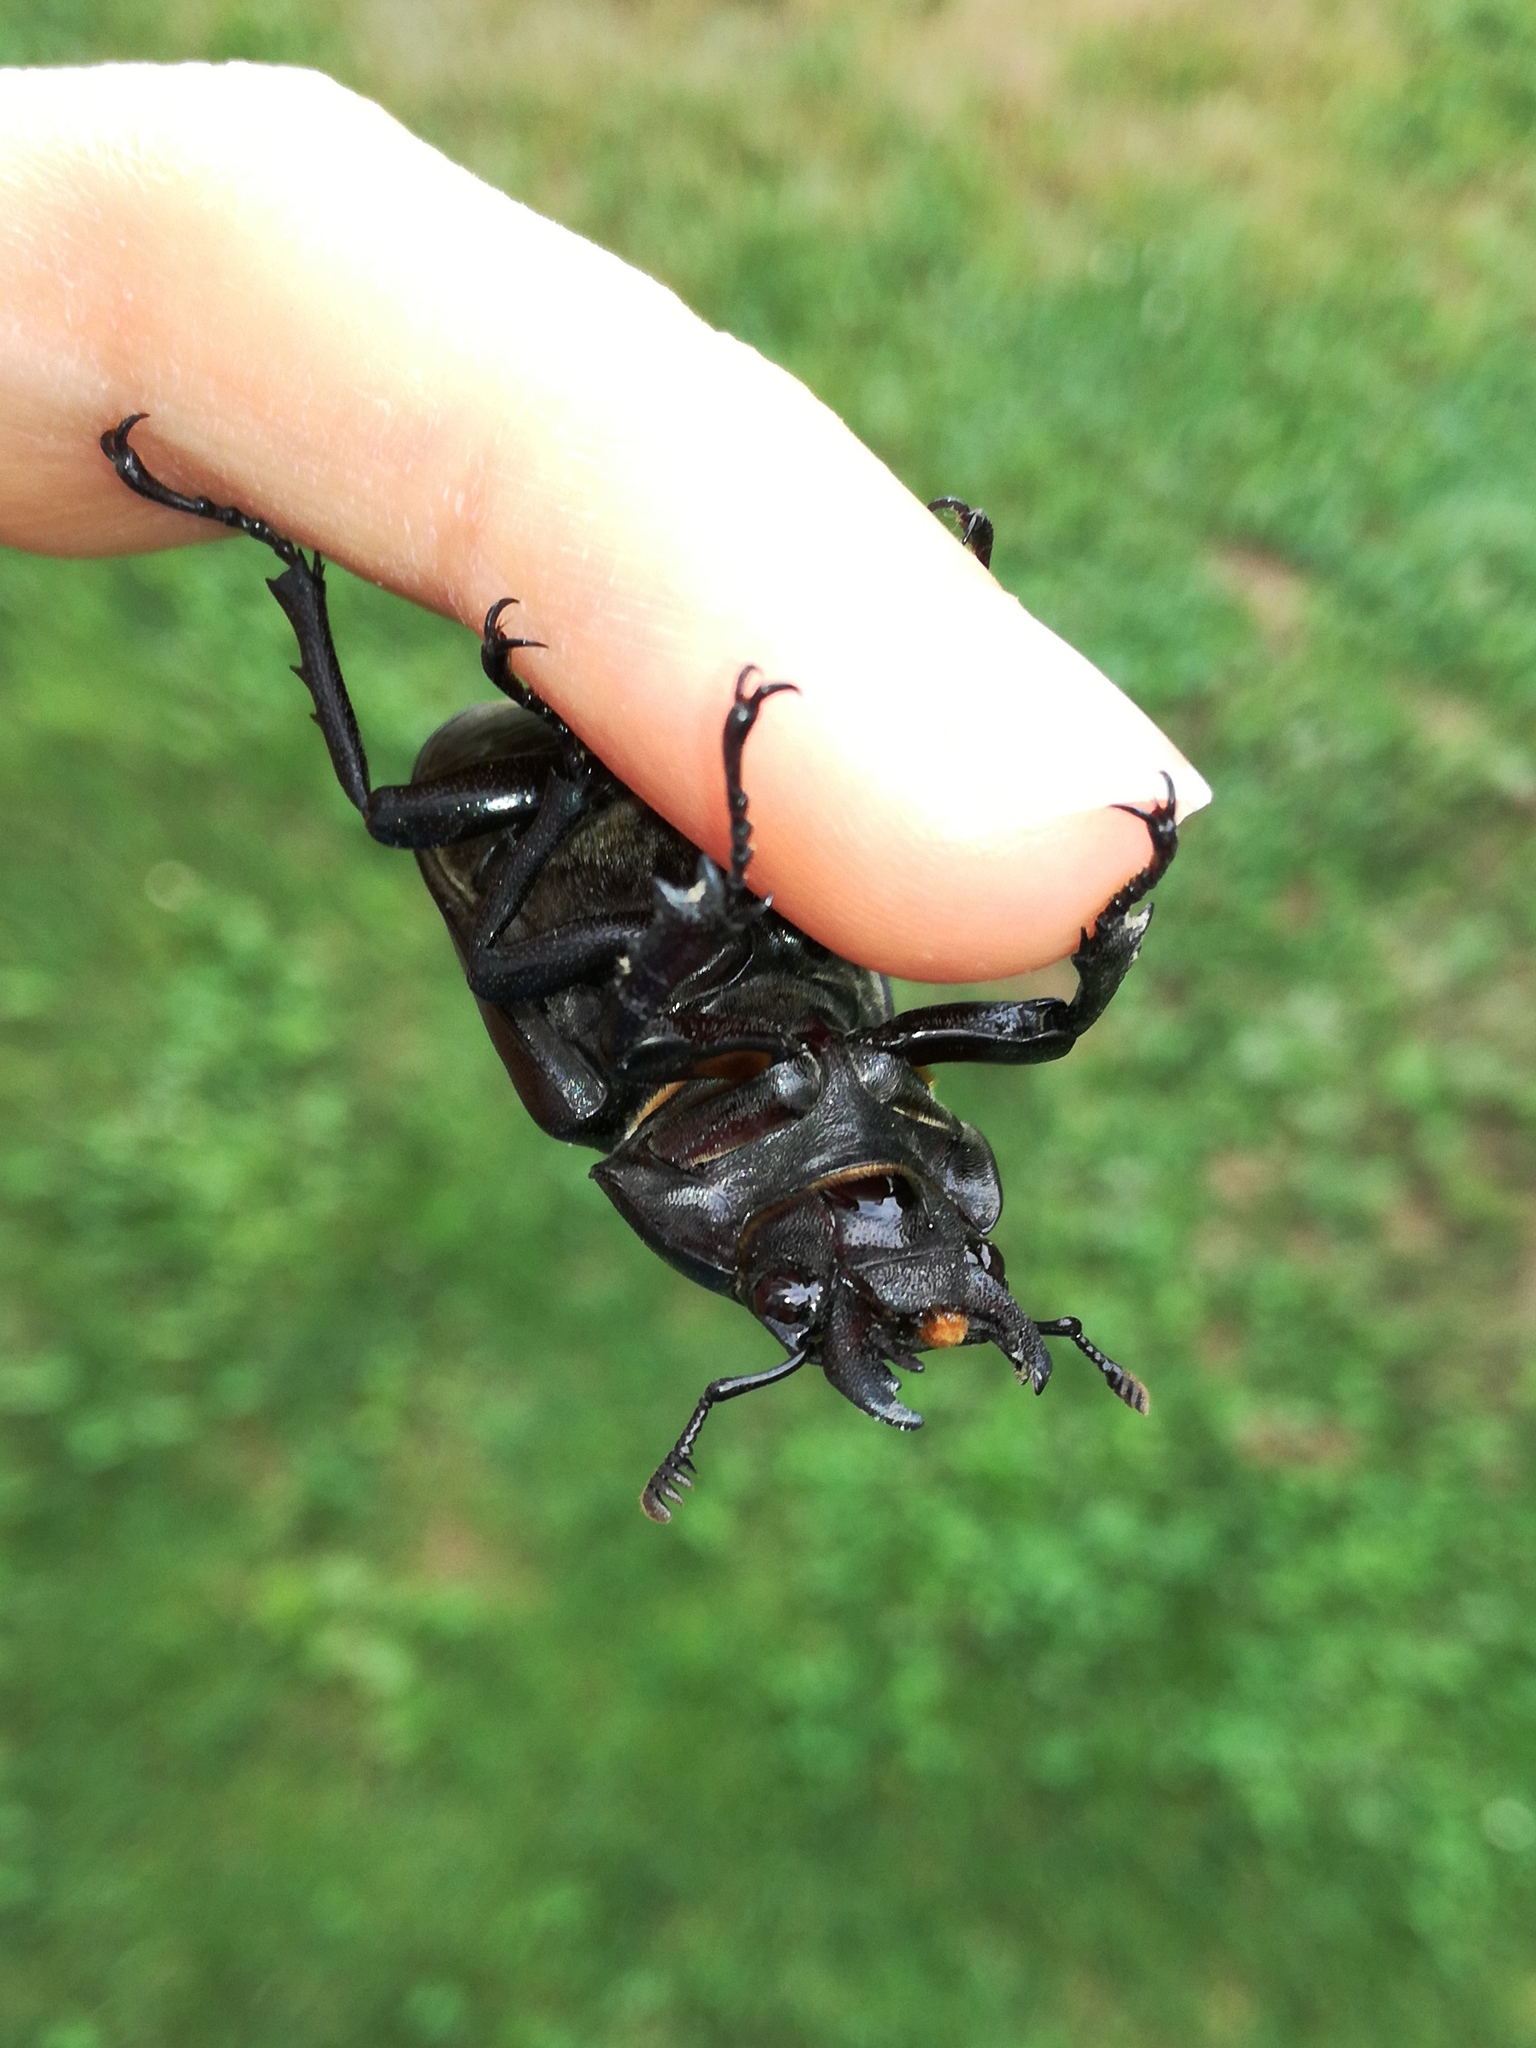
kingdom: Animalia
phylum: Arthropoda
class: Insecta
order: Coleoptera
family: Lucanidae
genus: Lucanus
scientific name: Lucanus cervus
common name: Stag beetle
